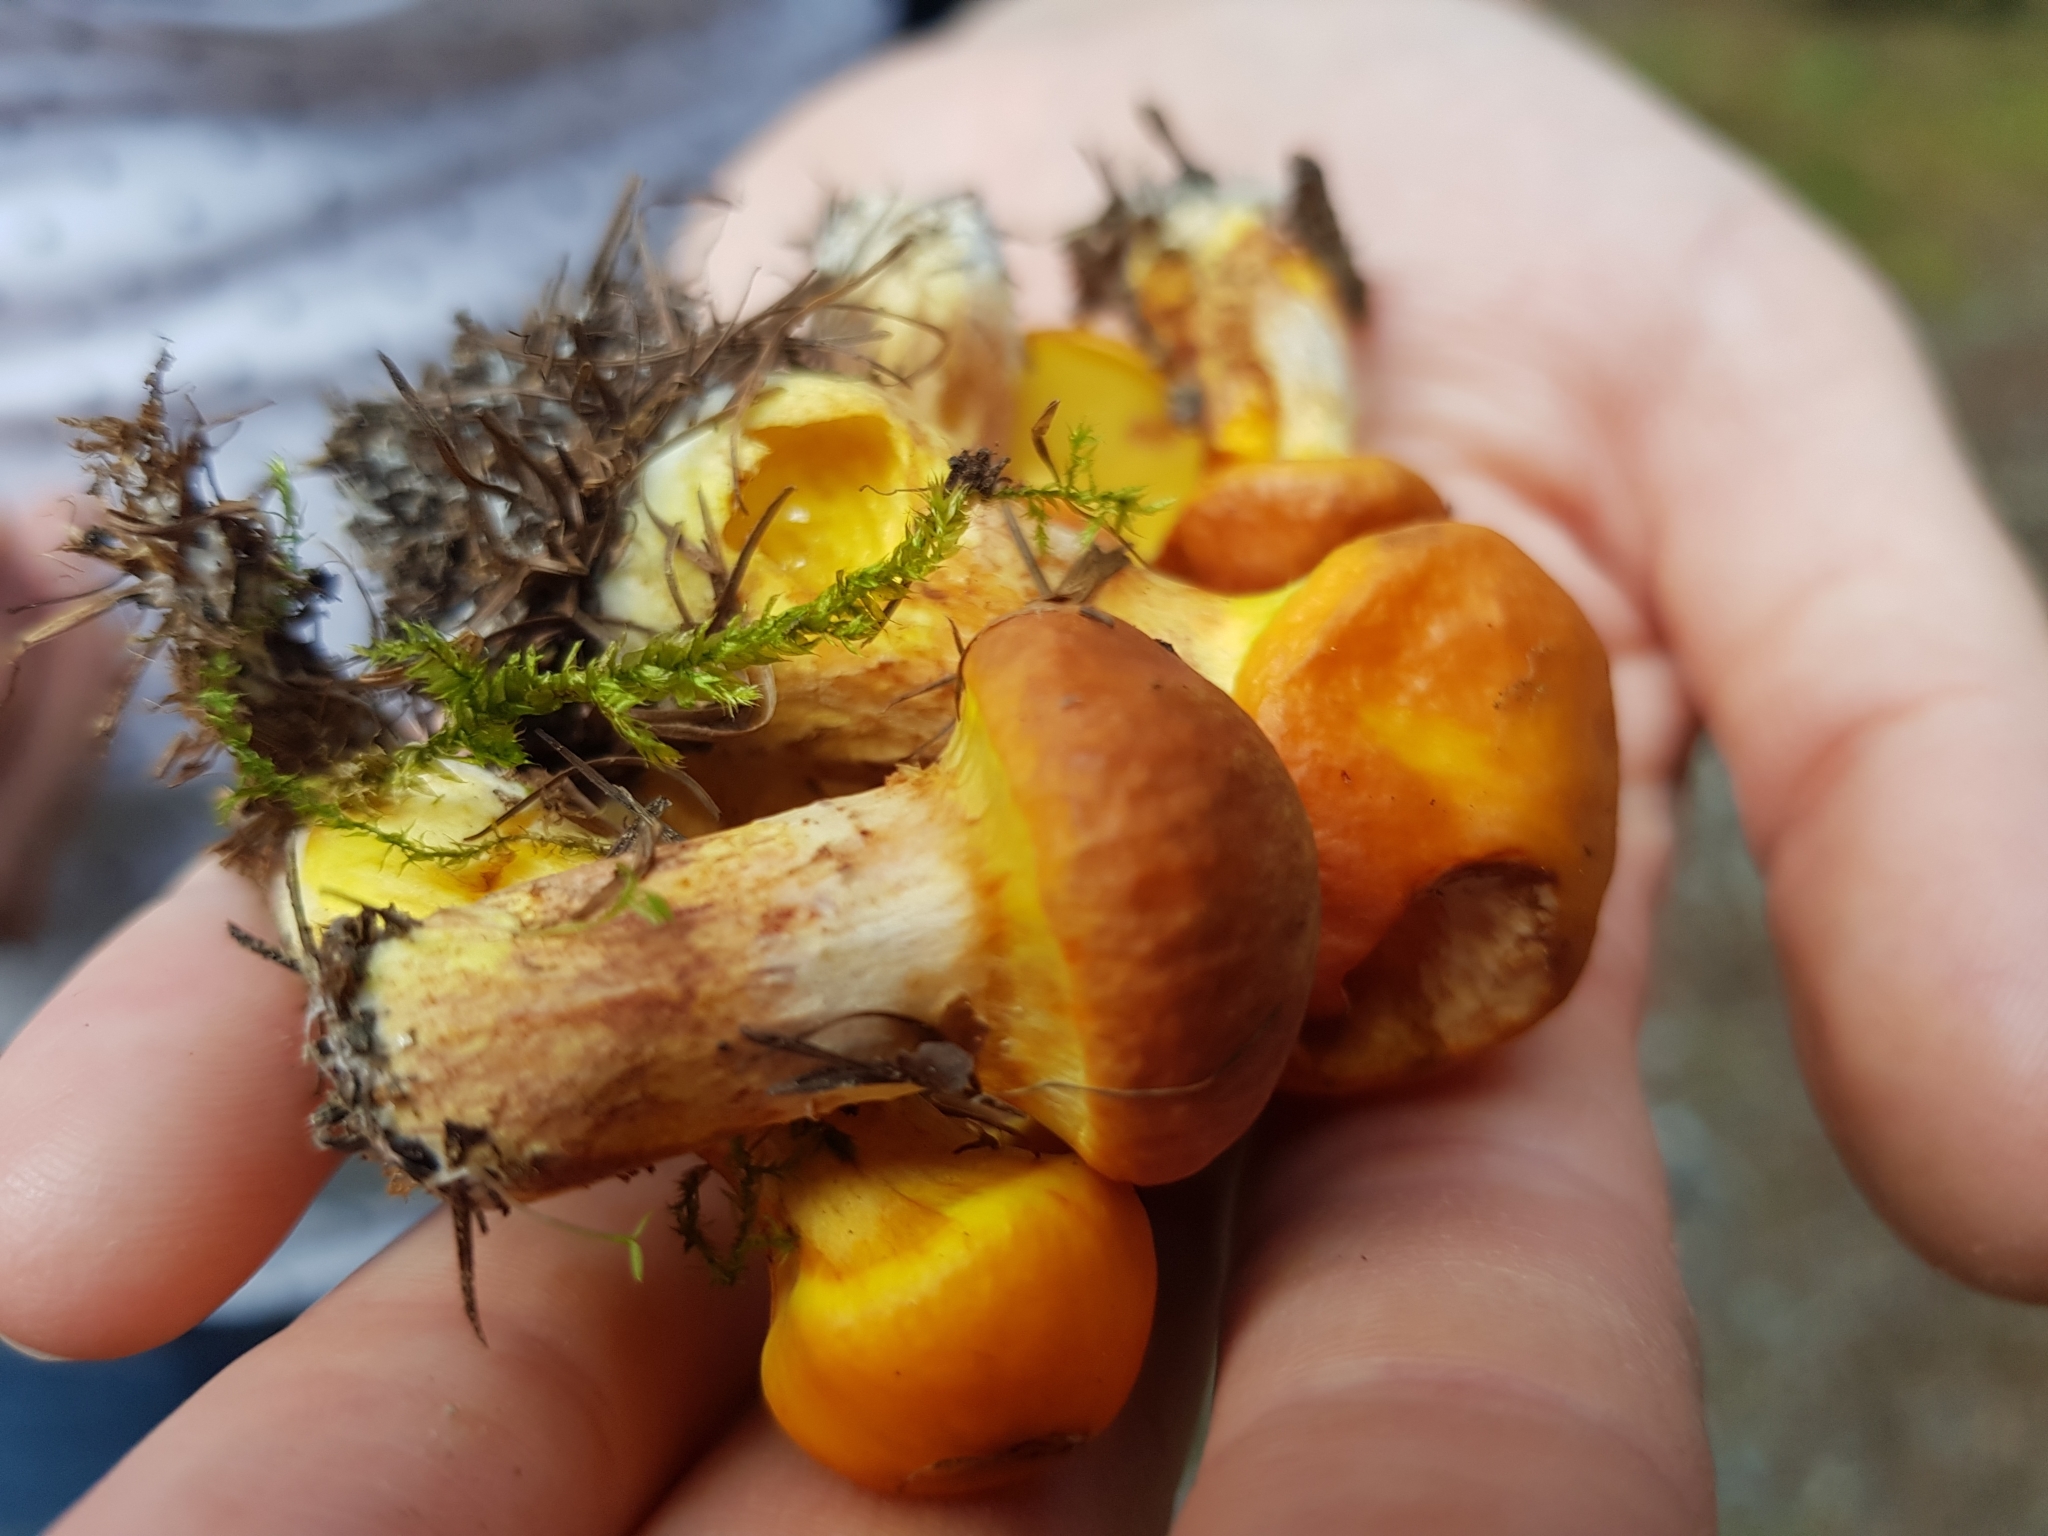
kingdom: Fungi
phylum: Basidiomycota
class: Agaricomycetes
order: Boletales
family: Suillaceae
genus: Suillus
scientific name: Suillus grevillei
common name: Larch bolete
